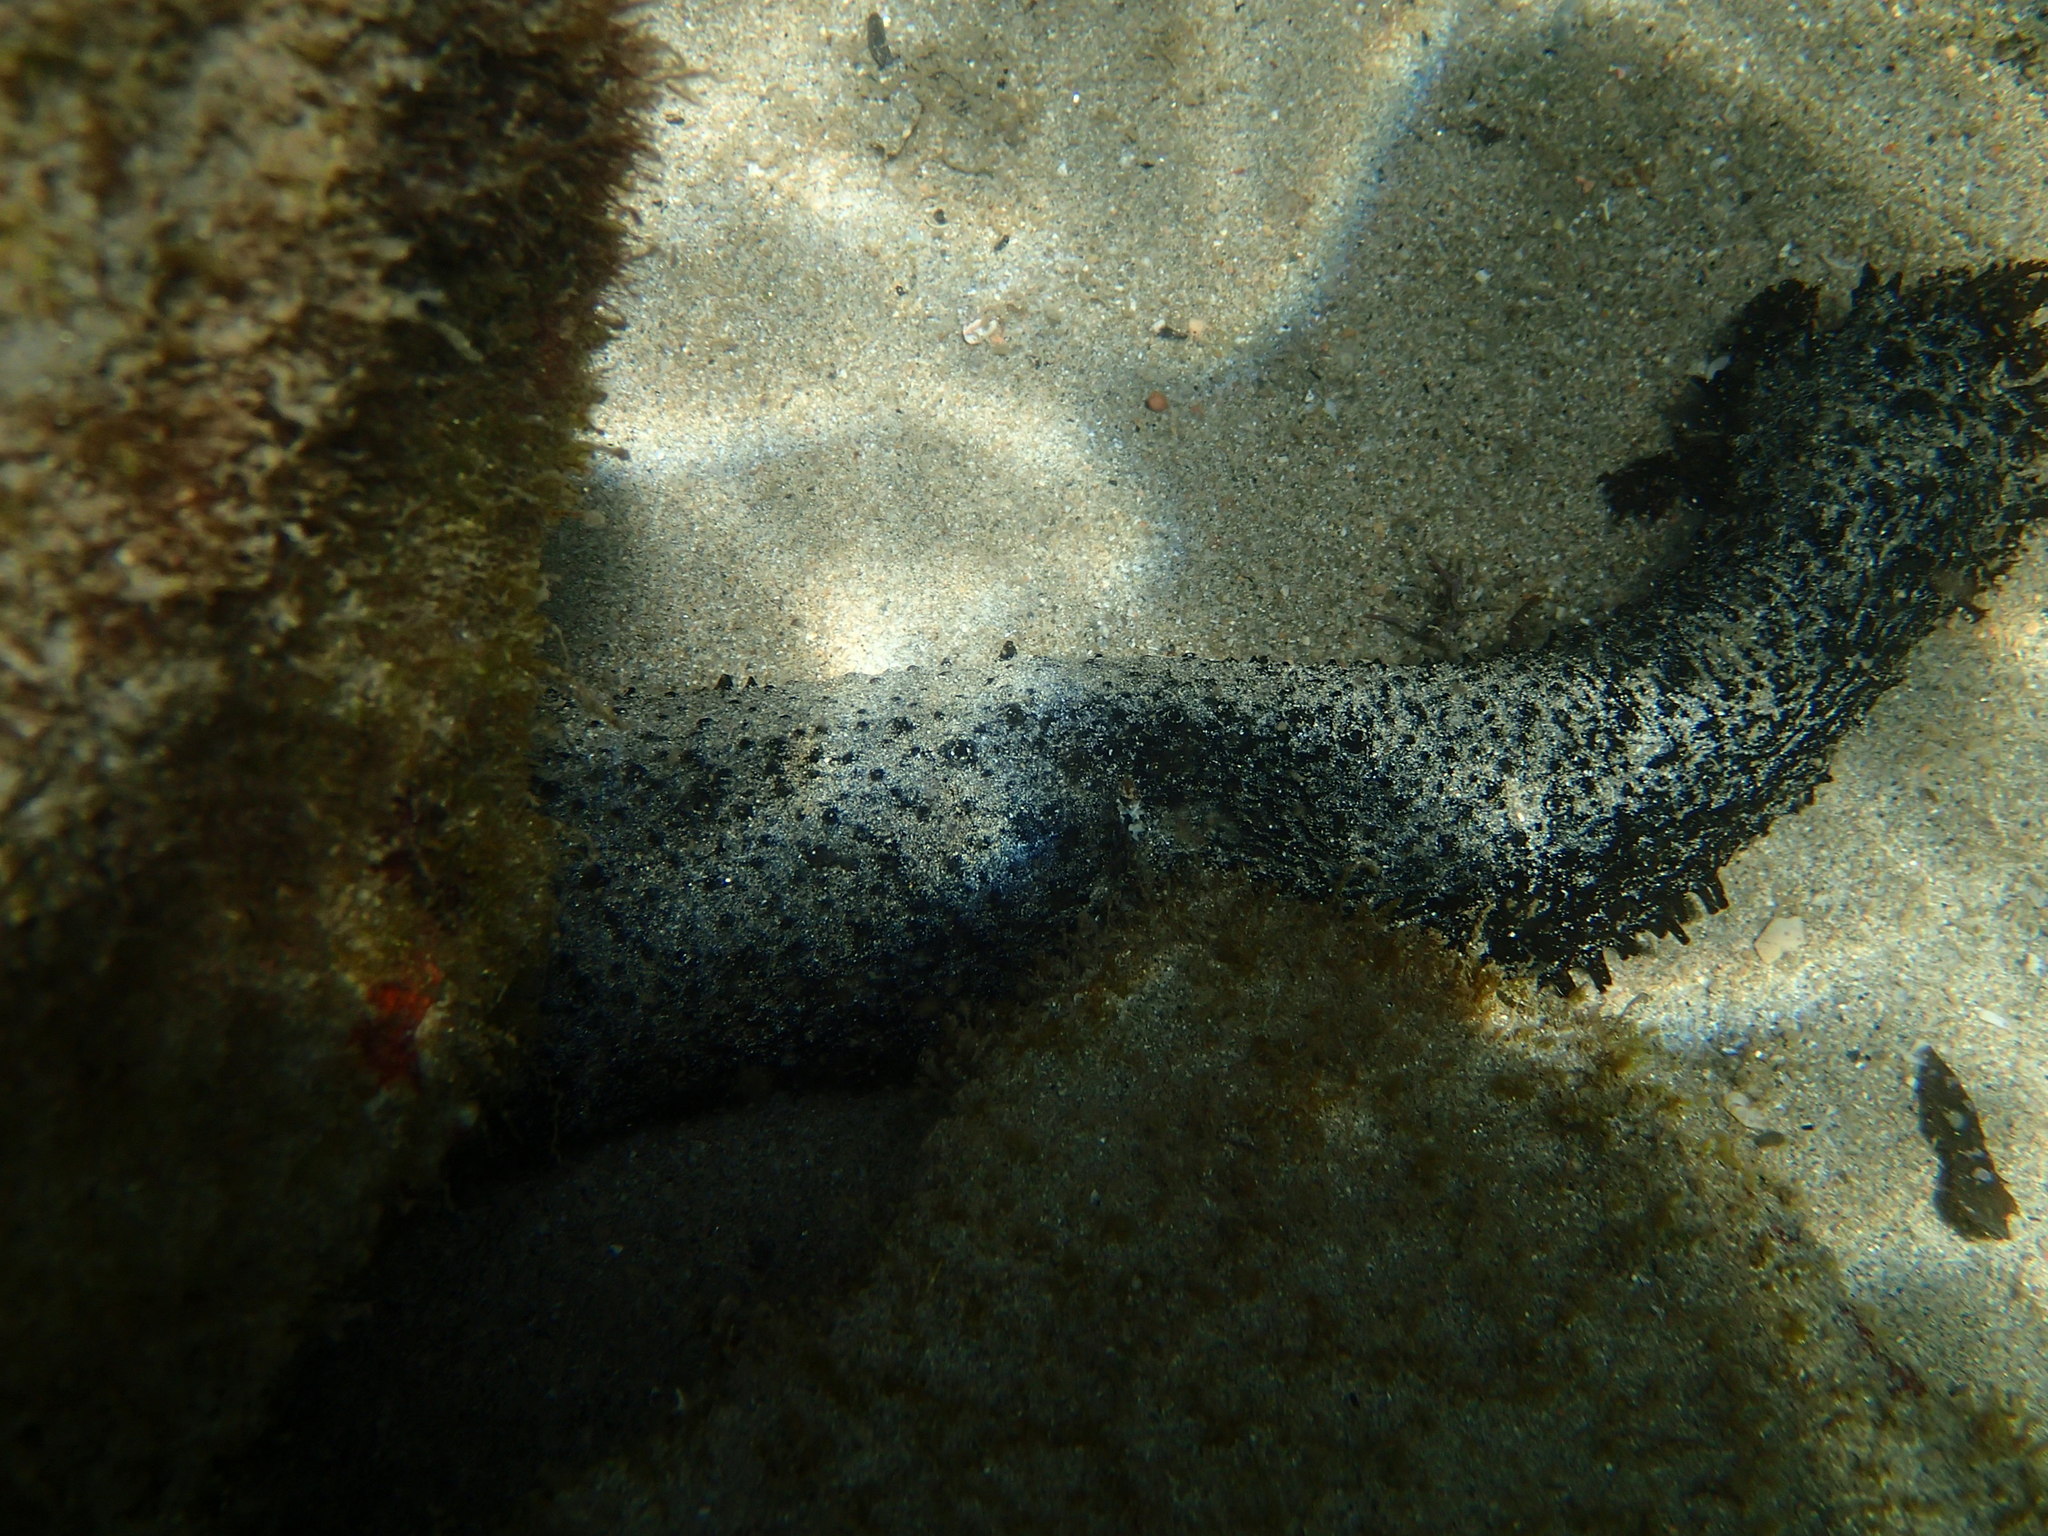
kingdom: Animalia
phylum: Echinodermata
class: Holothuroidea
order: Holothuriida
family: Holothuriidae
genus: Holothuria
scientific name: Holothuria leucospilota
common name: White thread fish
